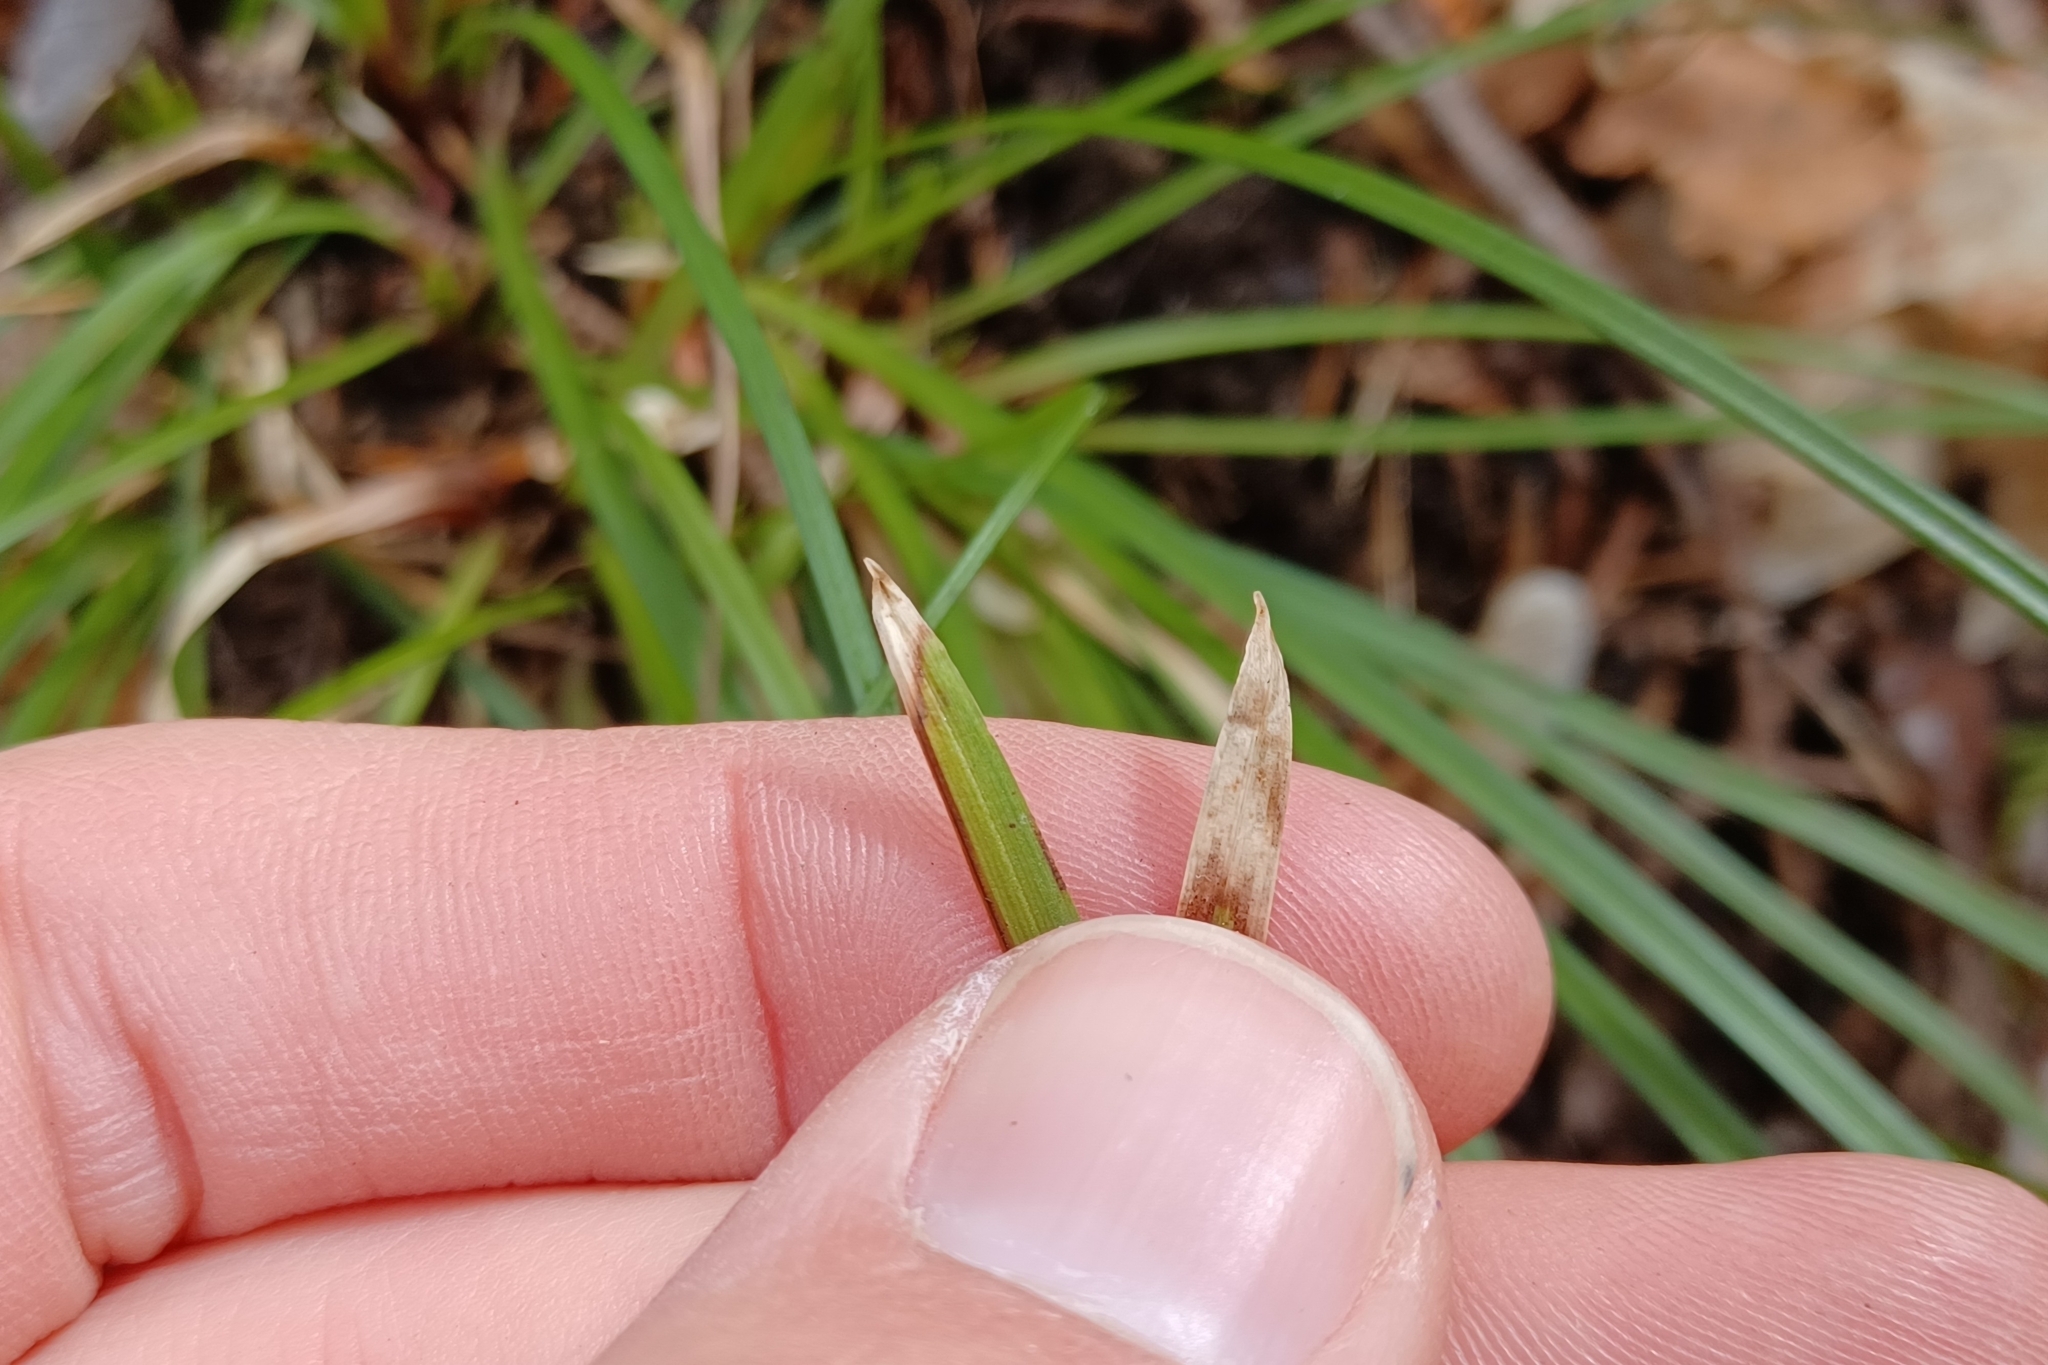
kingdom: Plantae
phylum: Tracheophyta
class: Liliopsida
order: Poales
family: Cyperaceae
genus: Carex
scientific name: Carex pedunculata
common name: Pedunculate sedge
